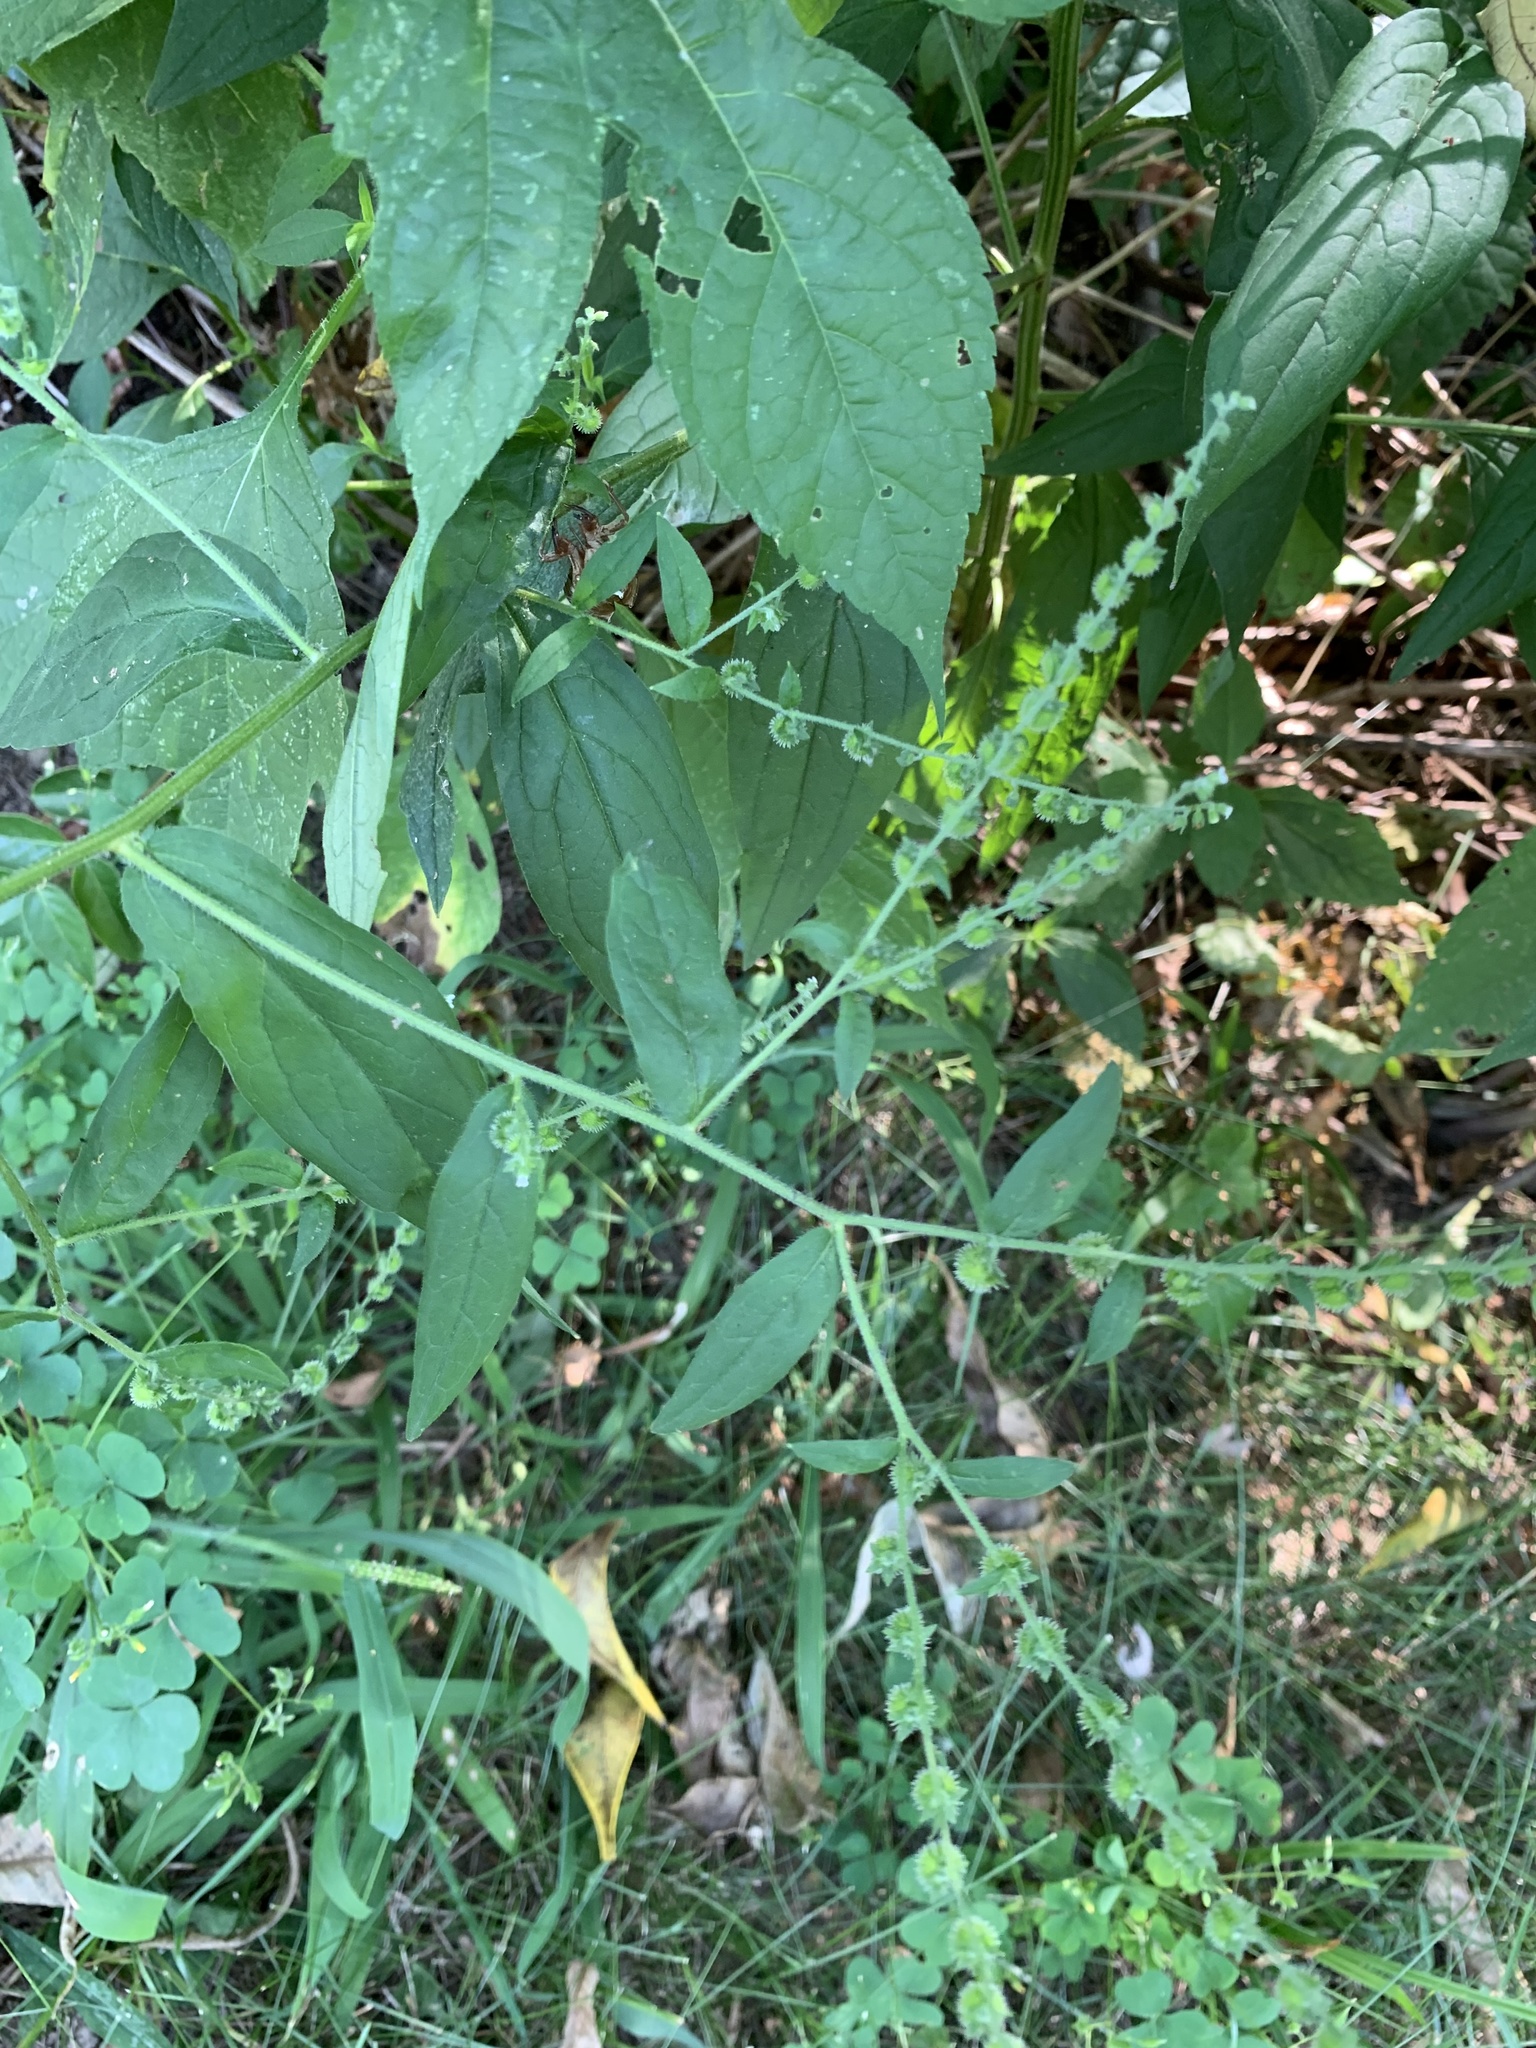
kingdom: Plantae
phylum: Tracheophyta
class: Magnoliopsida
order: Boraginales
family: Boraginaceae
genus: Hackelia
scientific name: Hackelia virginiana
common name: Beggar's-lice
